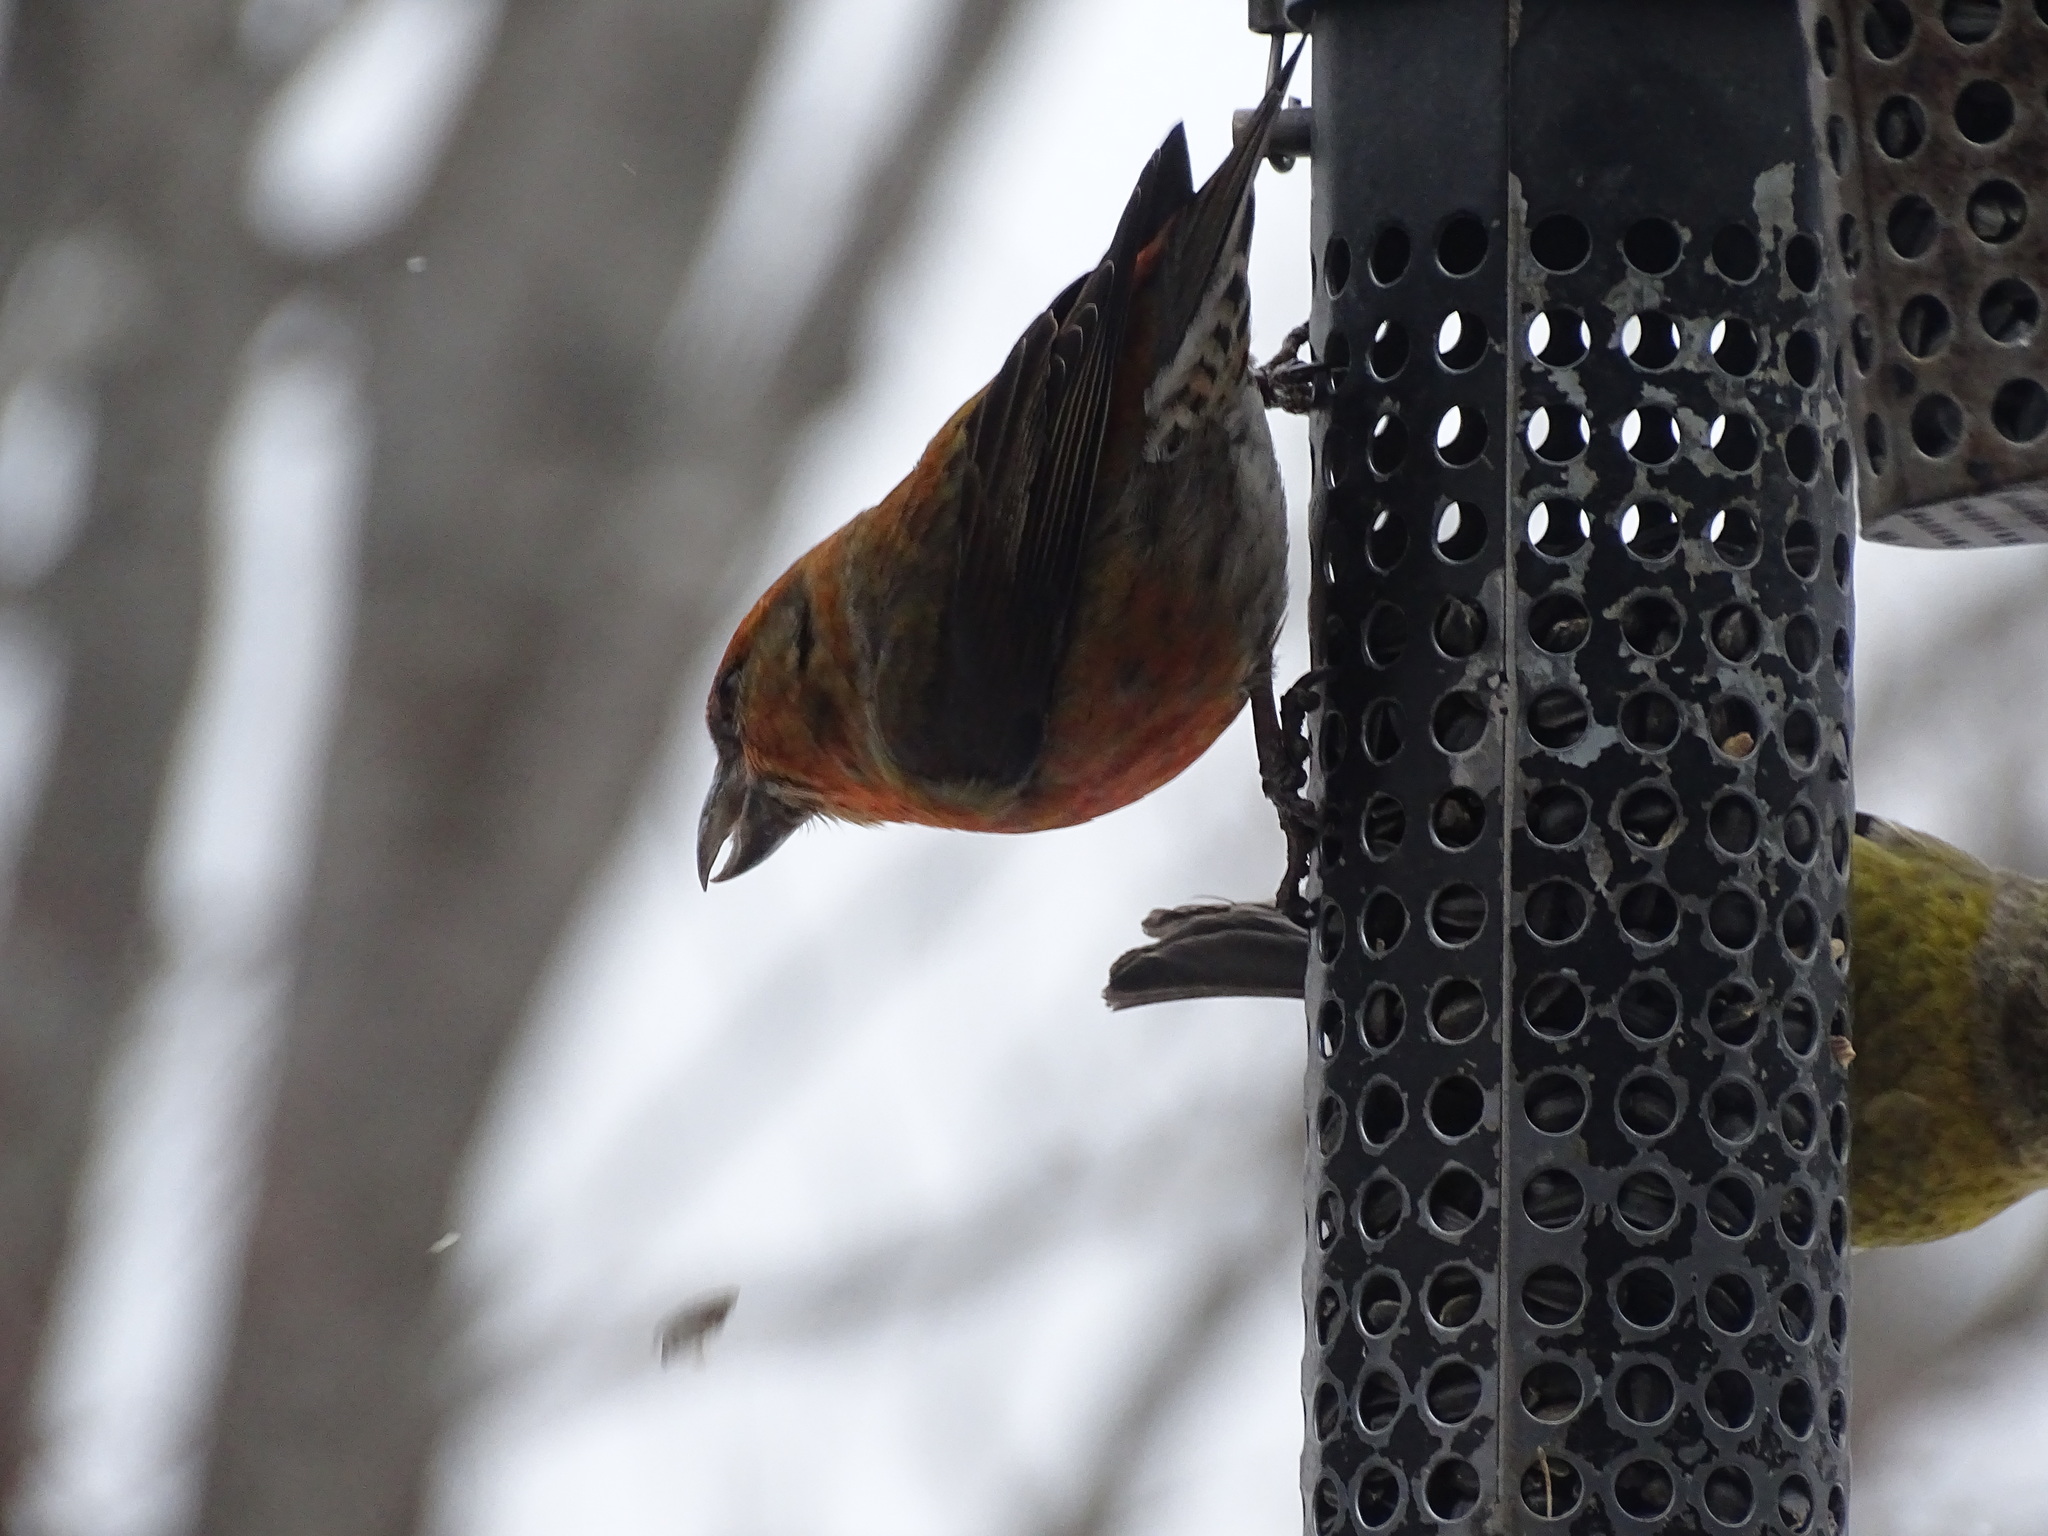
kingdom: Animalia
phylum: Chordata
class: Aves
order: Passeriformes
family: Fringillidae
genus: Loxia
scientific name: Loxia curvirostra
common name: Red crossbill
